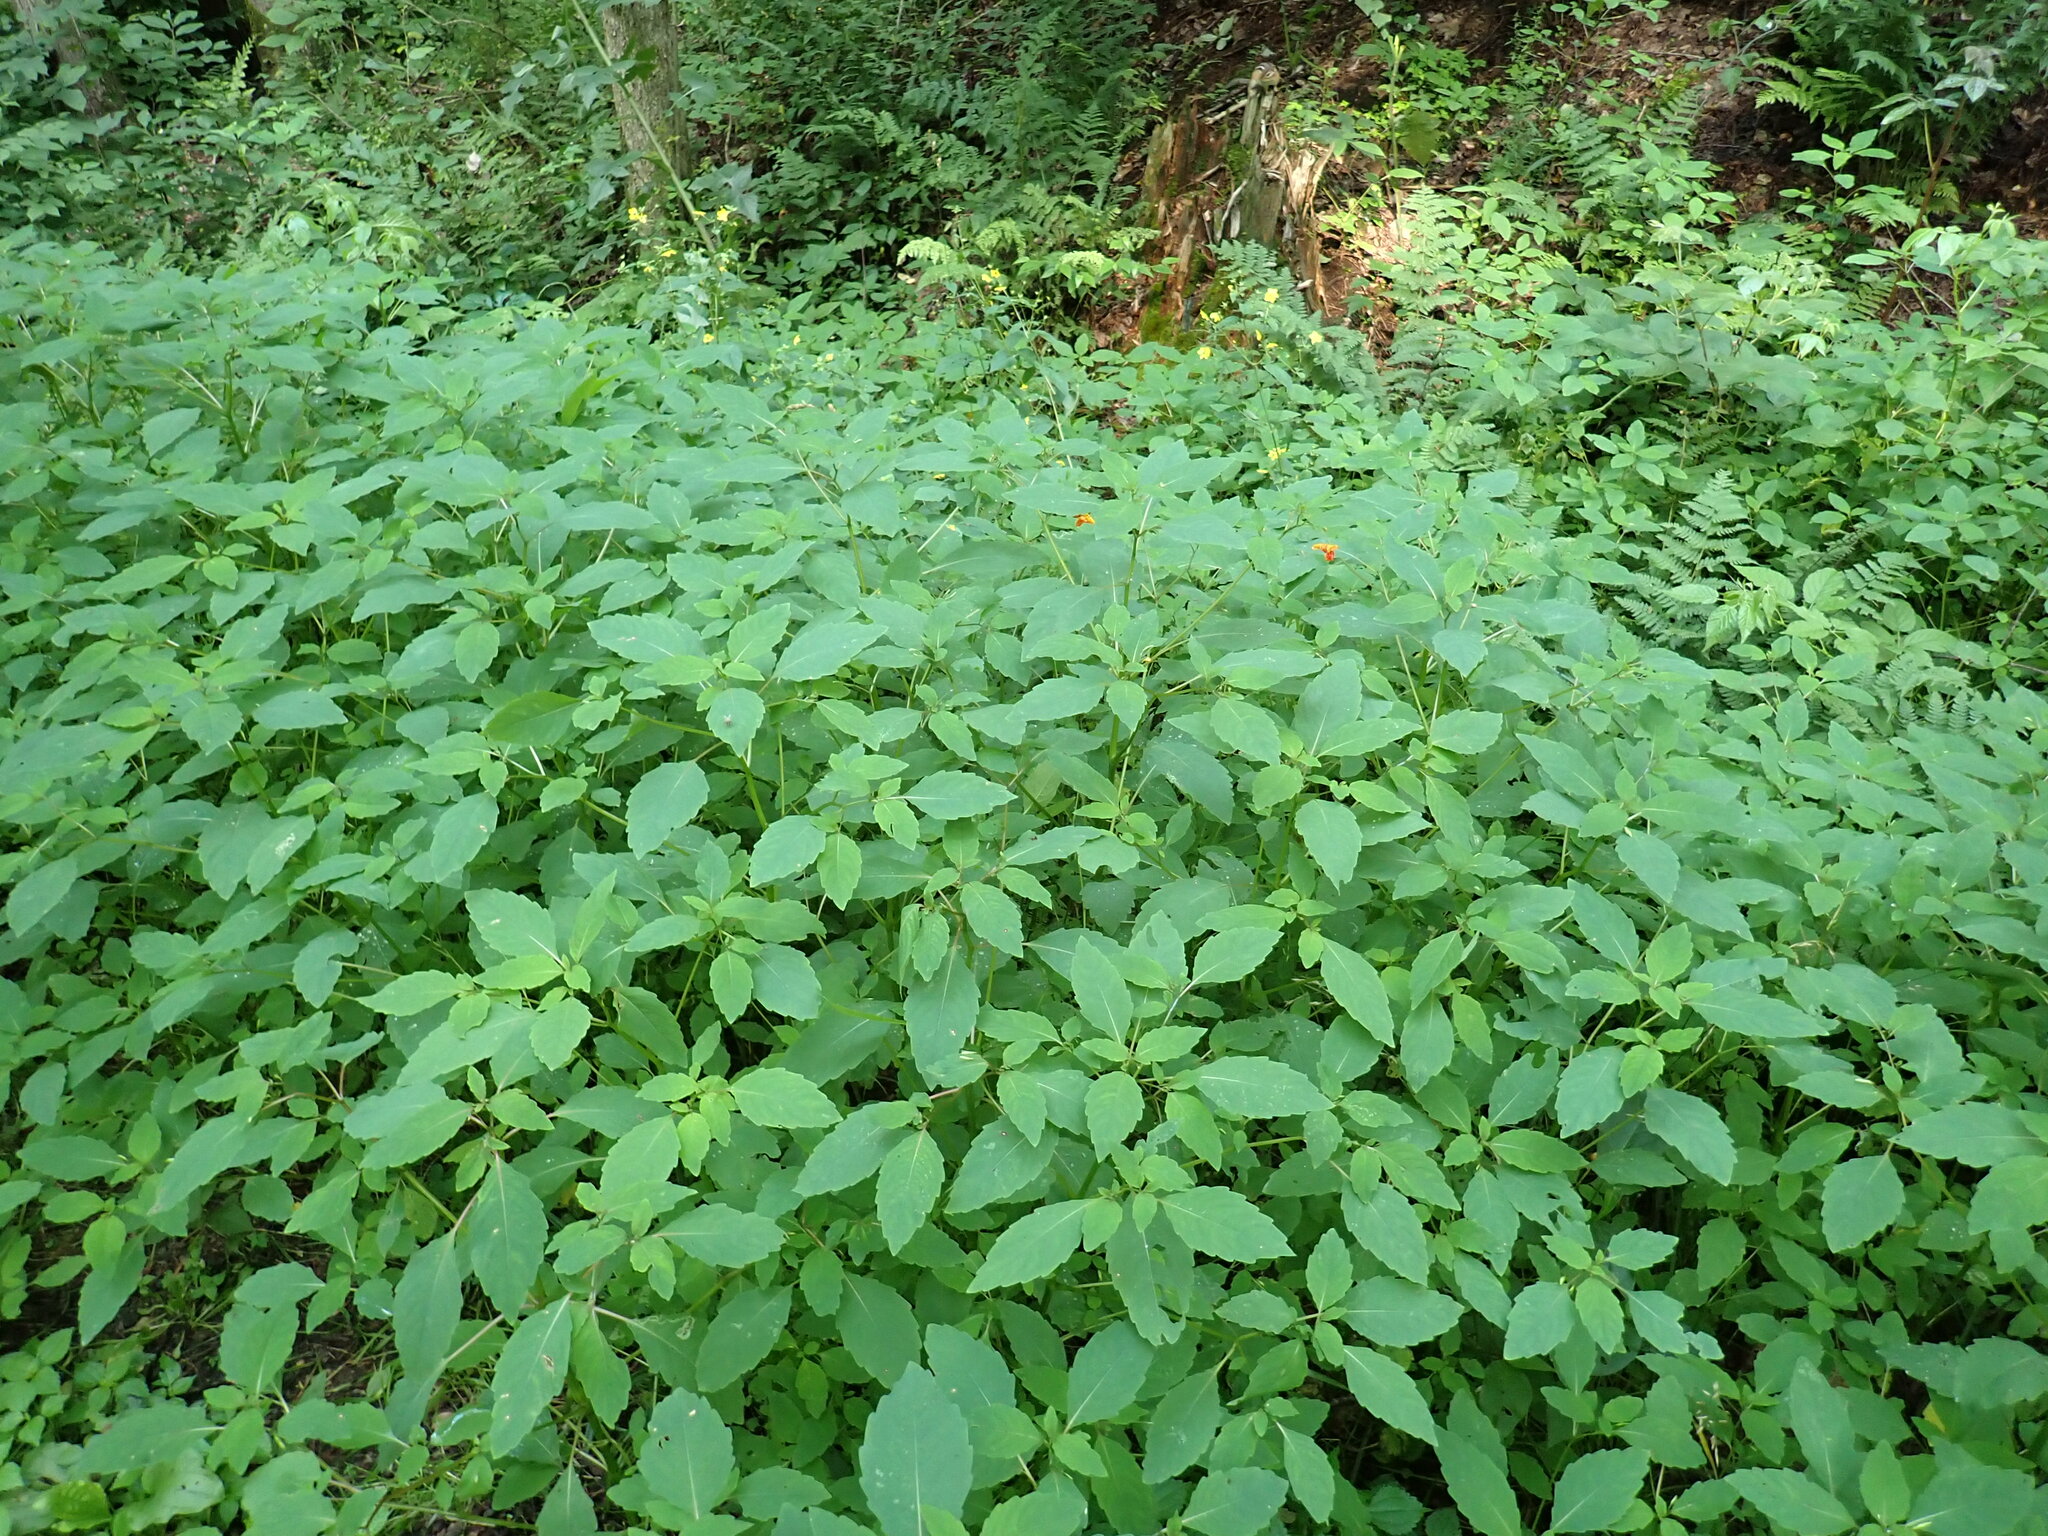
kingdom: Plantae
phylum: Tracheophyta
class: Magnoliopsida
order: Ericales
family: Balsaminaceae
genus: Impatiens
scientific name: Impatiens capensis
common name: Orange balsam
